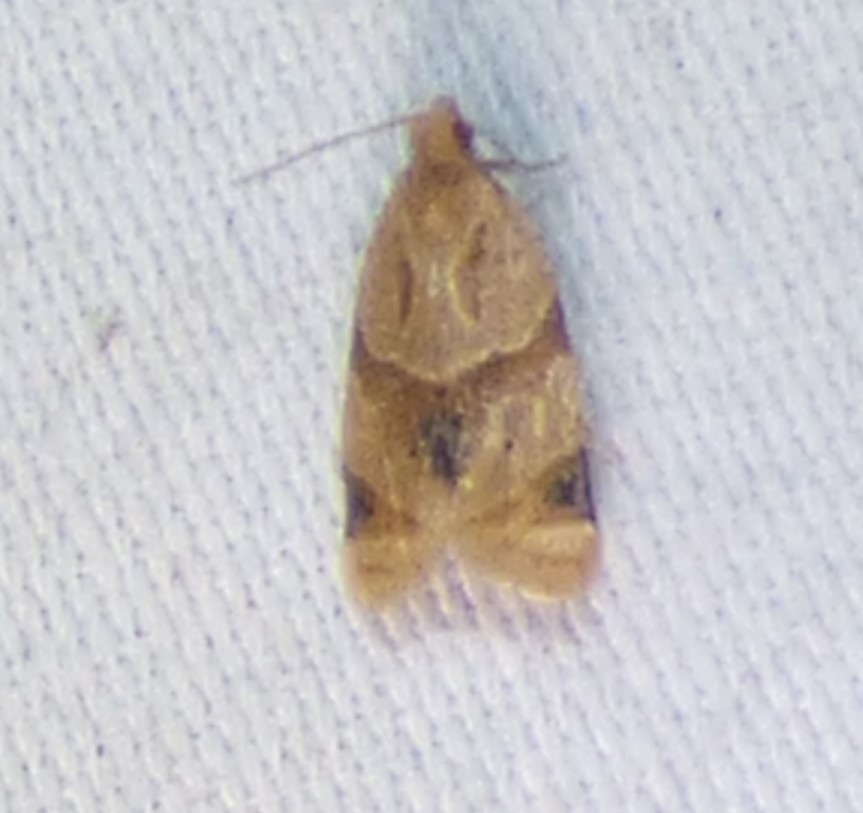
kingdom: Animalia
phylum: Arthropoda
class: Insecta
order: Lepidoptera
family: Tortricidae
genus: Clepsis
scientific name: Clepsis peritana
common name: Garden tortrix
